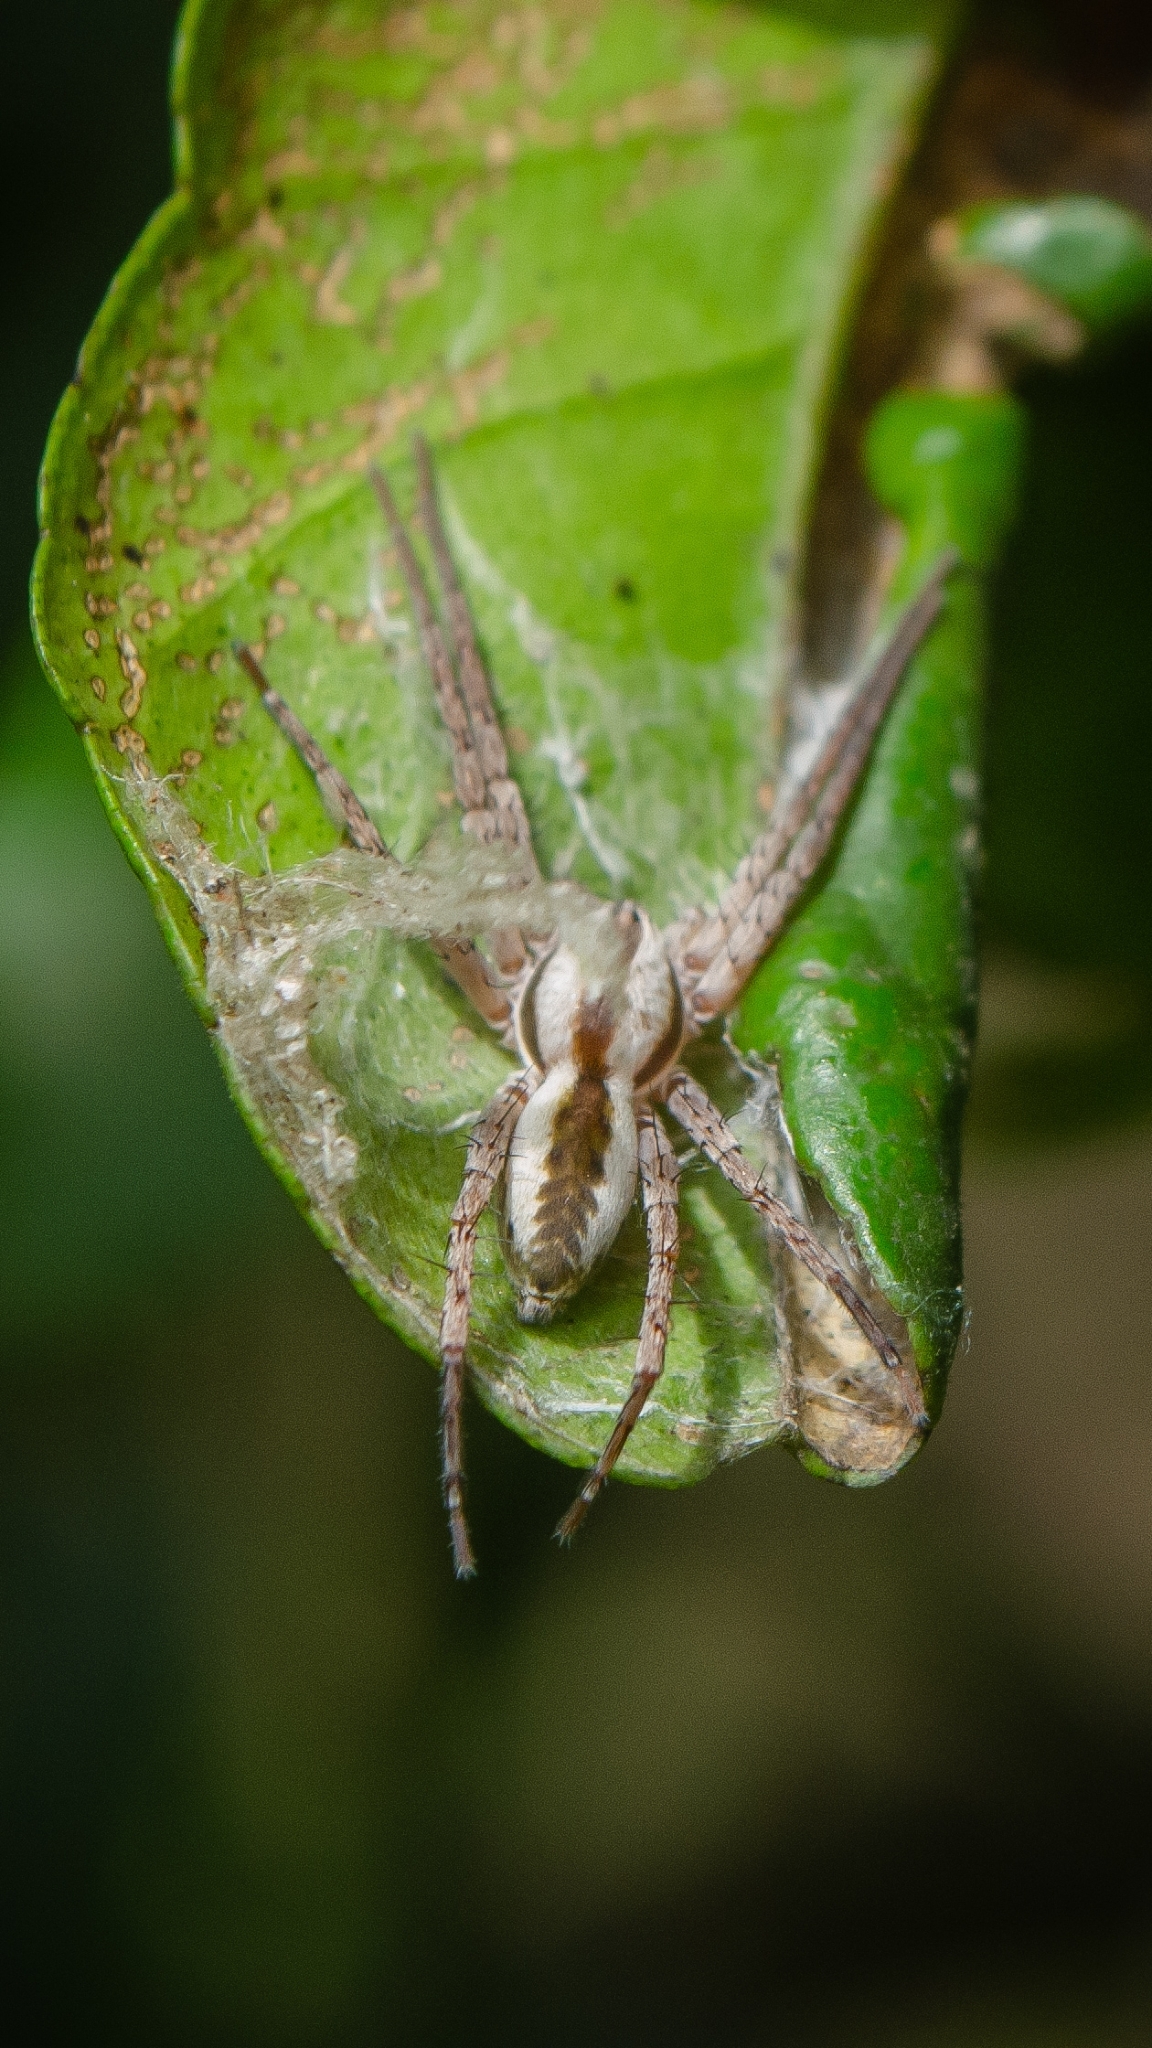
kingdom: Animalia
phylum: Arthropoda
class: Arachnida
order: Araneae
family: Anyphaenidae
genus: Arachosia
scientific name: Arachosia praesignis
